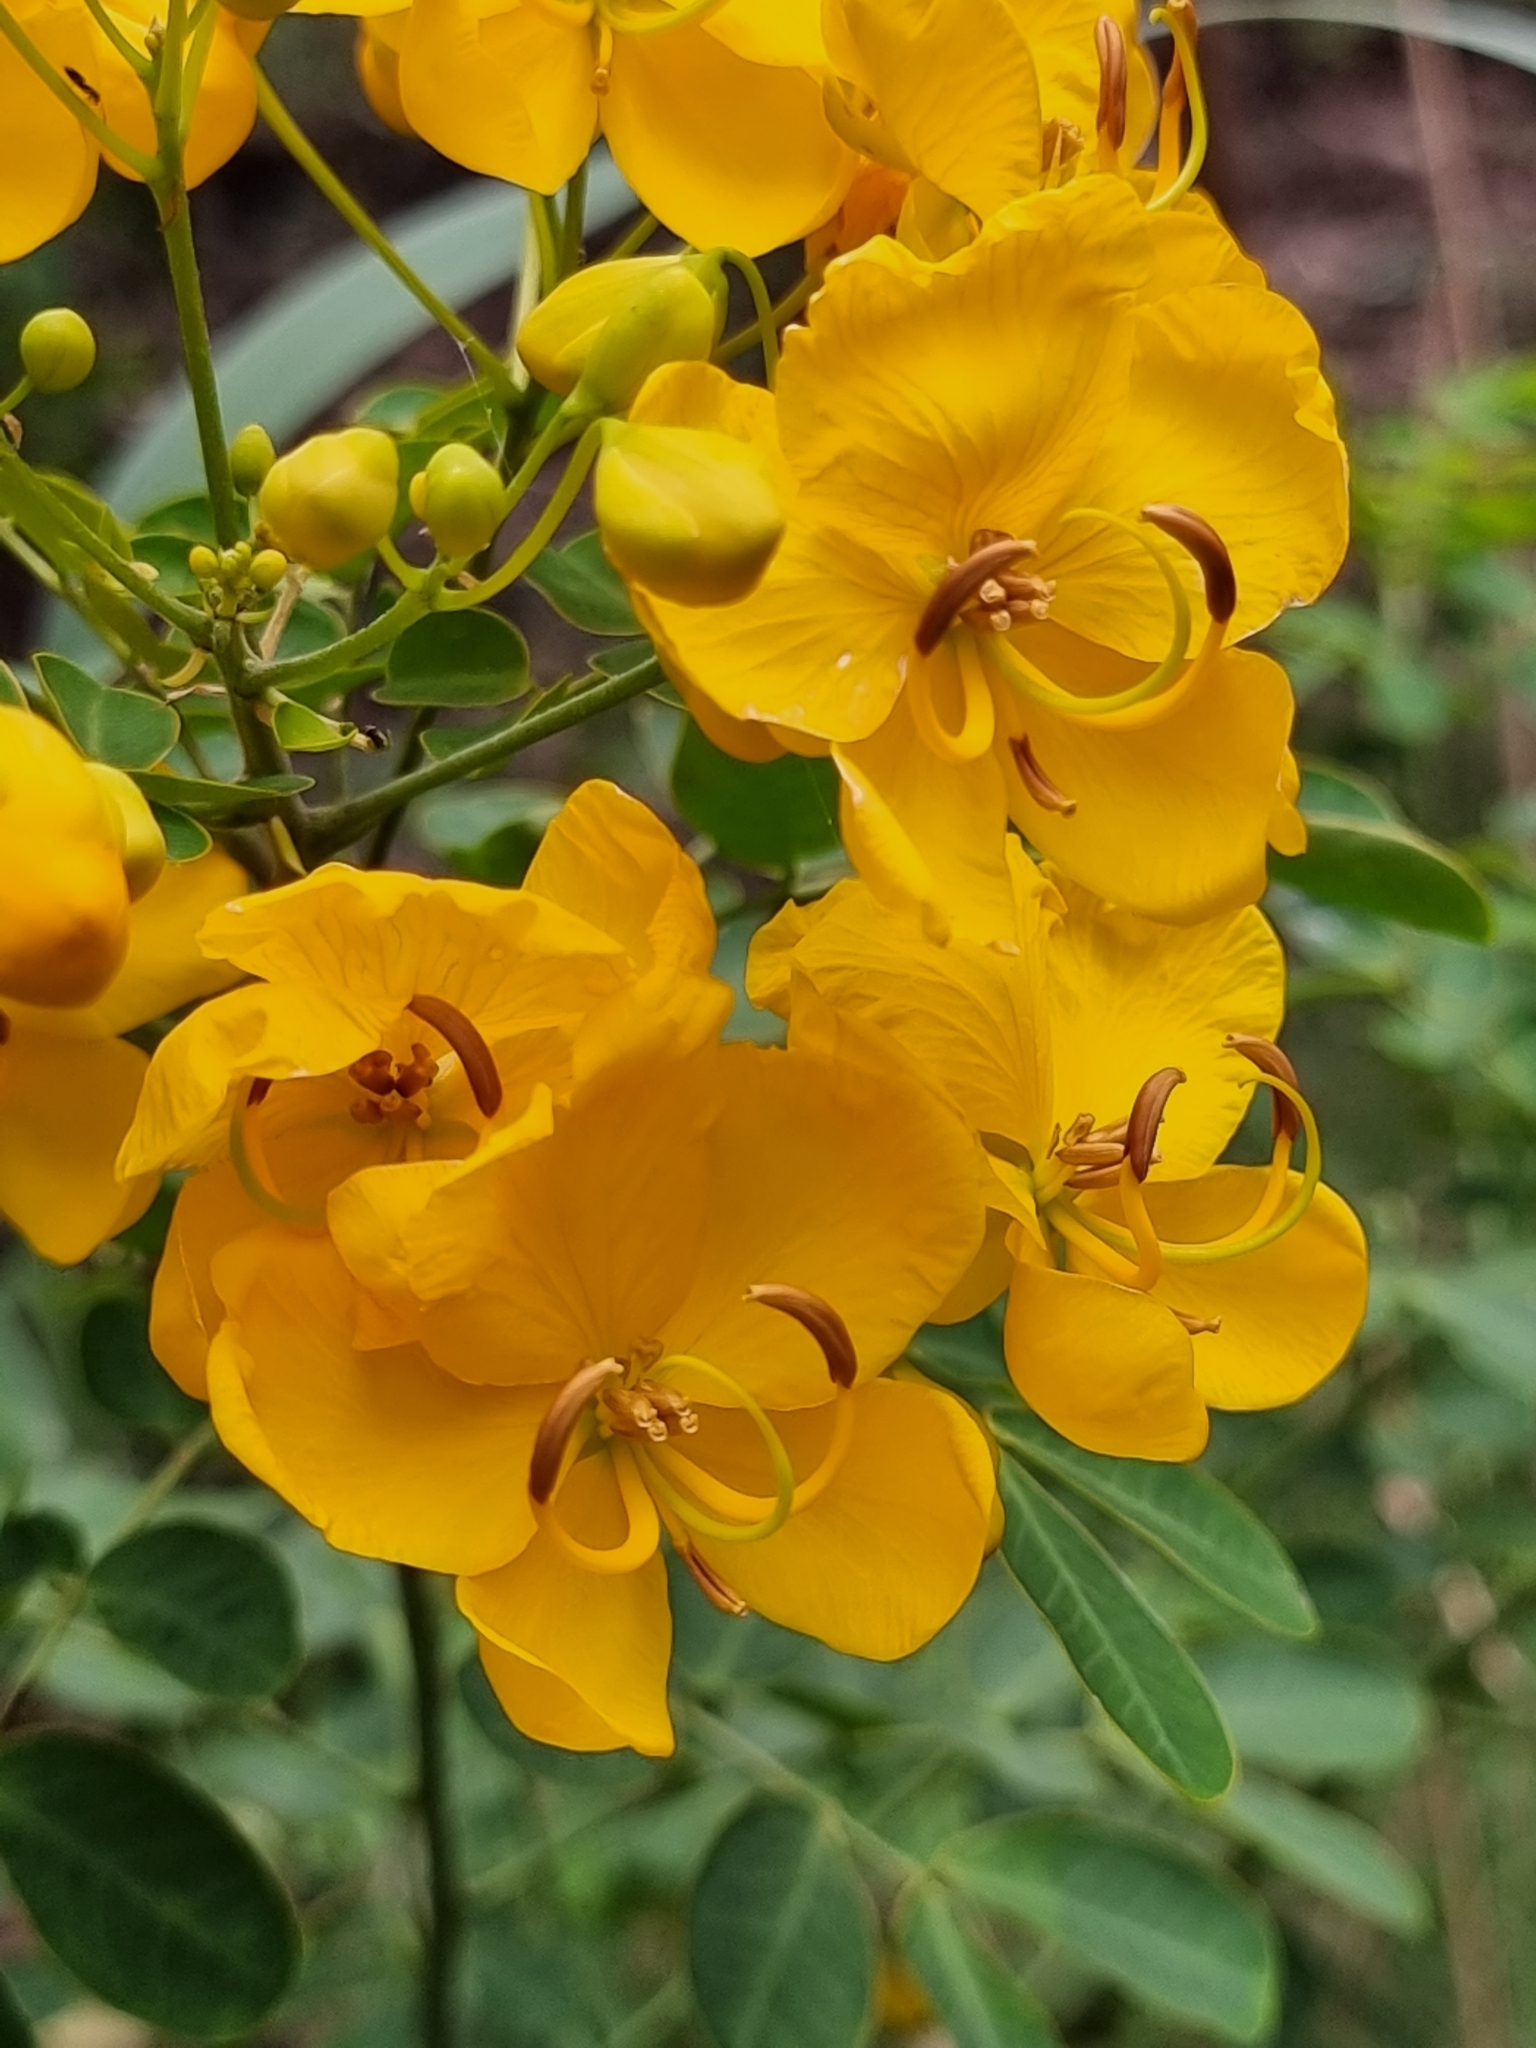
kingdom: Plantae
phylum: Tracheophyta
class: Magnoliopsida
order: Fabales
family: Fabaceae
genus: Senna
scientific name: Senna pendula
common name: Easter cassia
